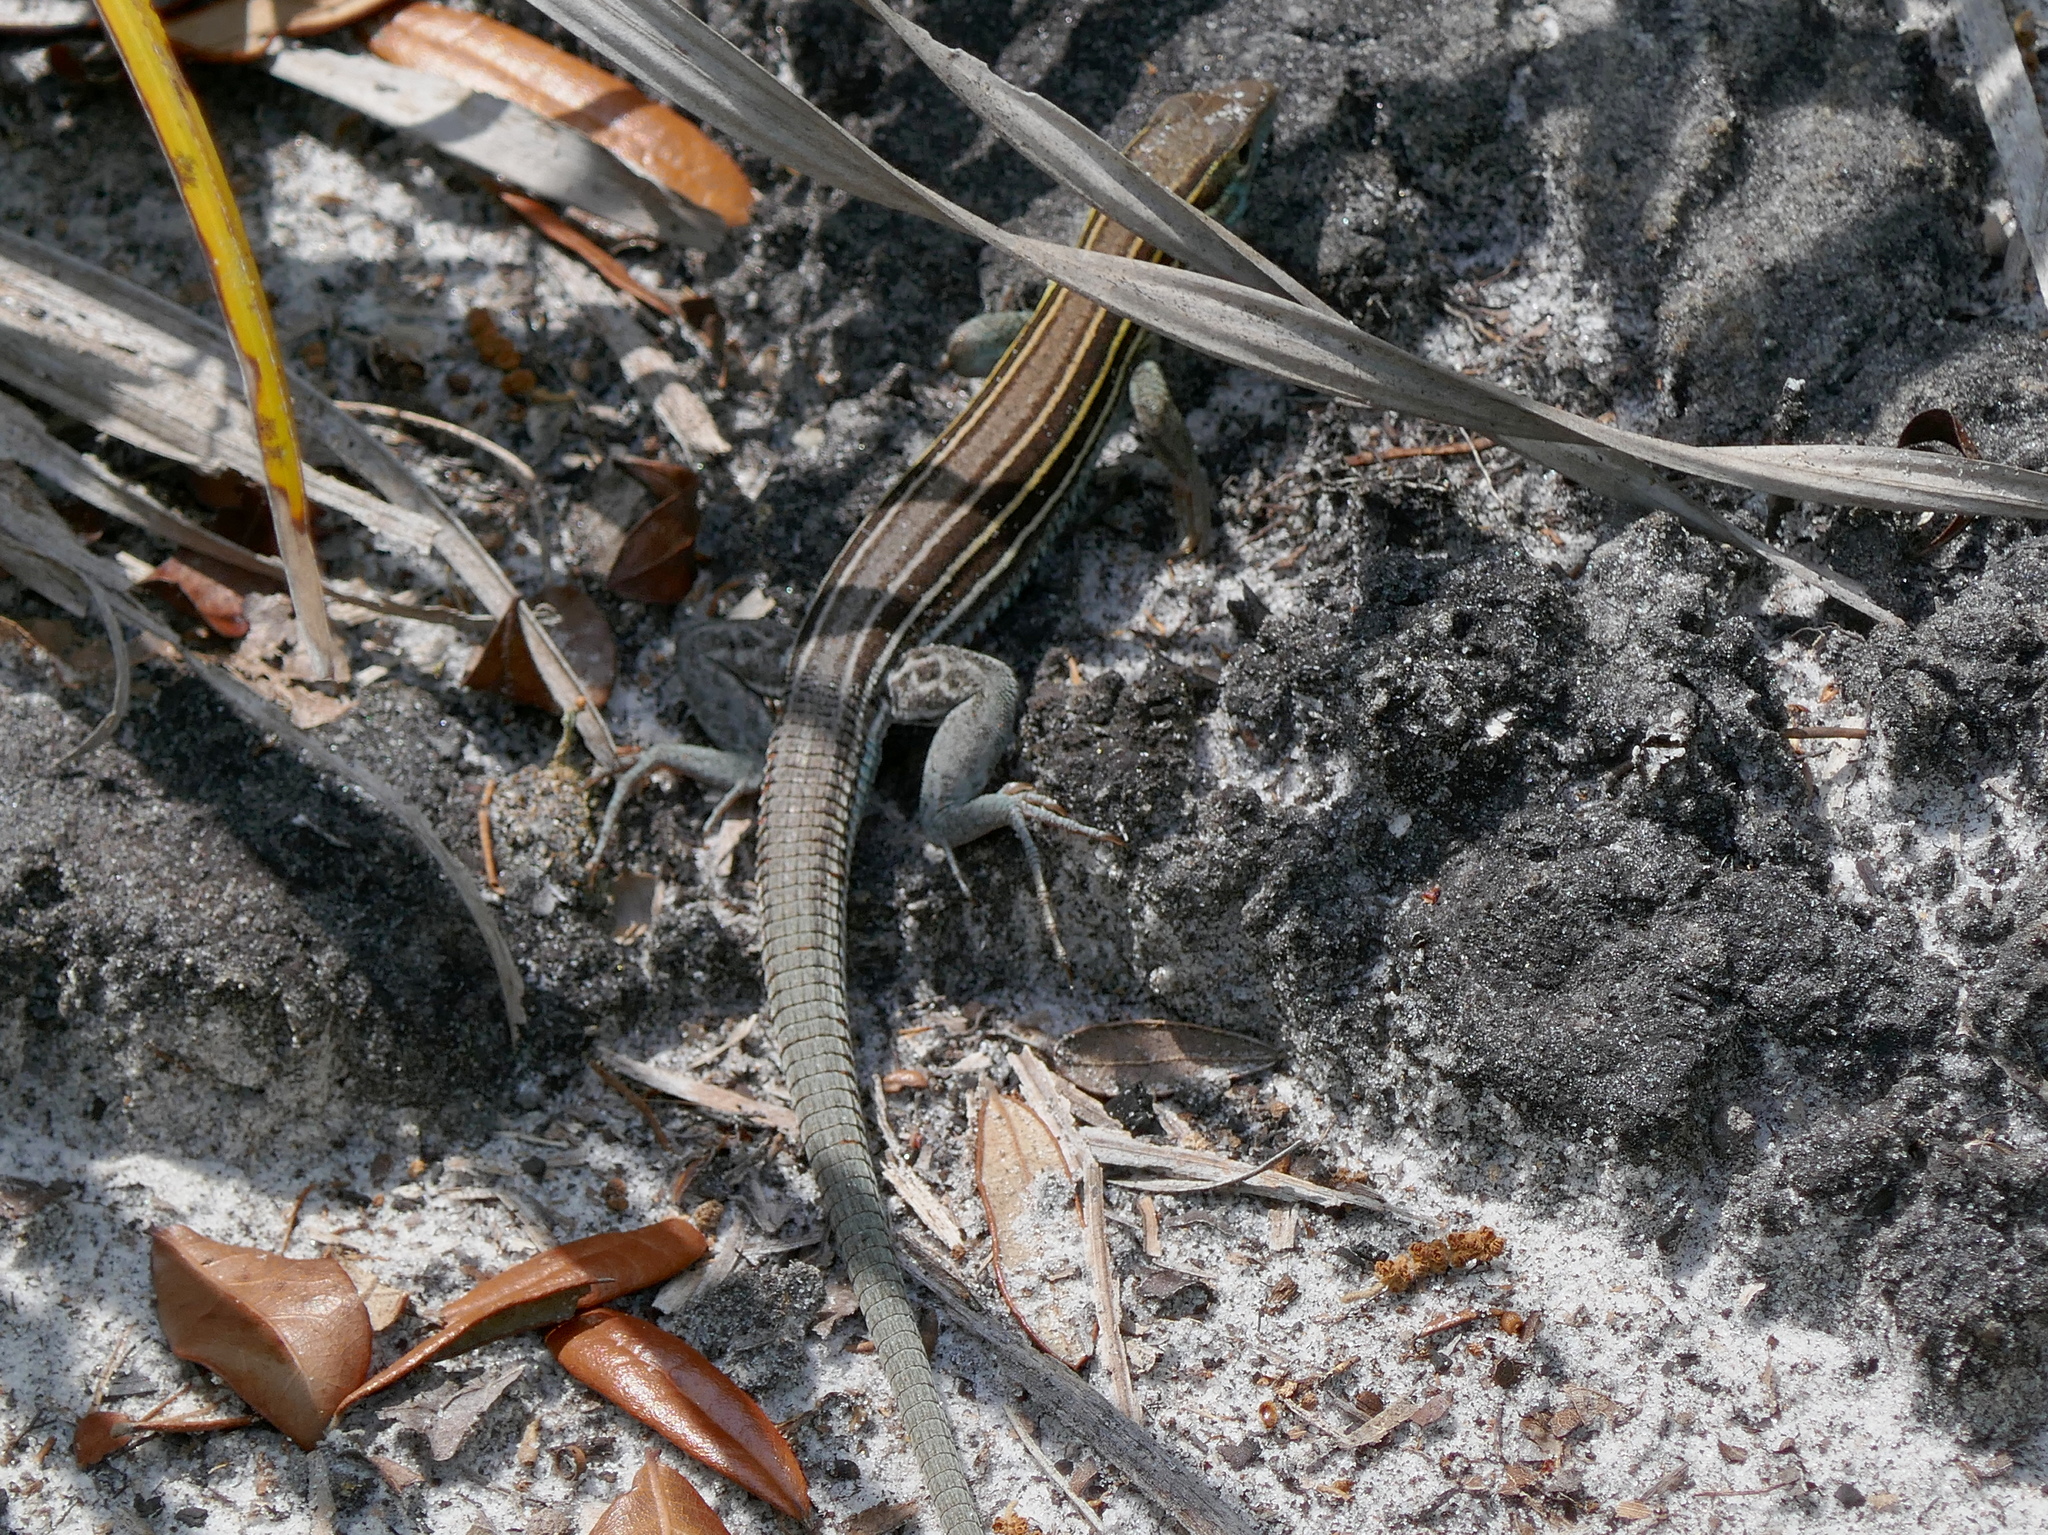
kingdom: Animalia
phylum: Chordata
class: Squamata
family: Teiidae
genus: Aspidoscelis
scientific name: Aspidoscelis sexlineatus
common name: Six-lined racerunner
